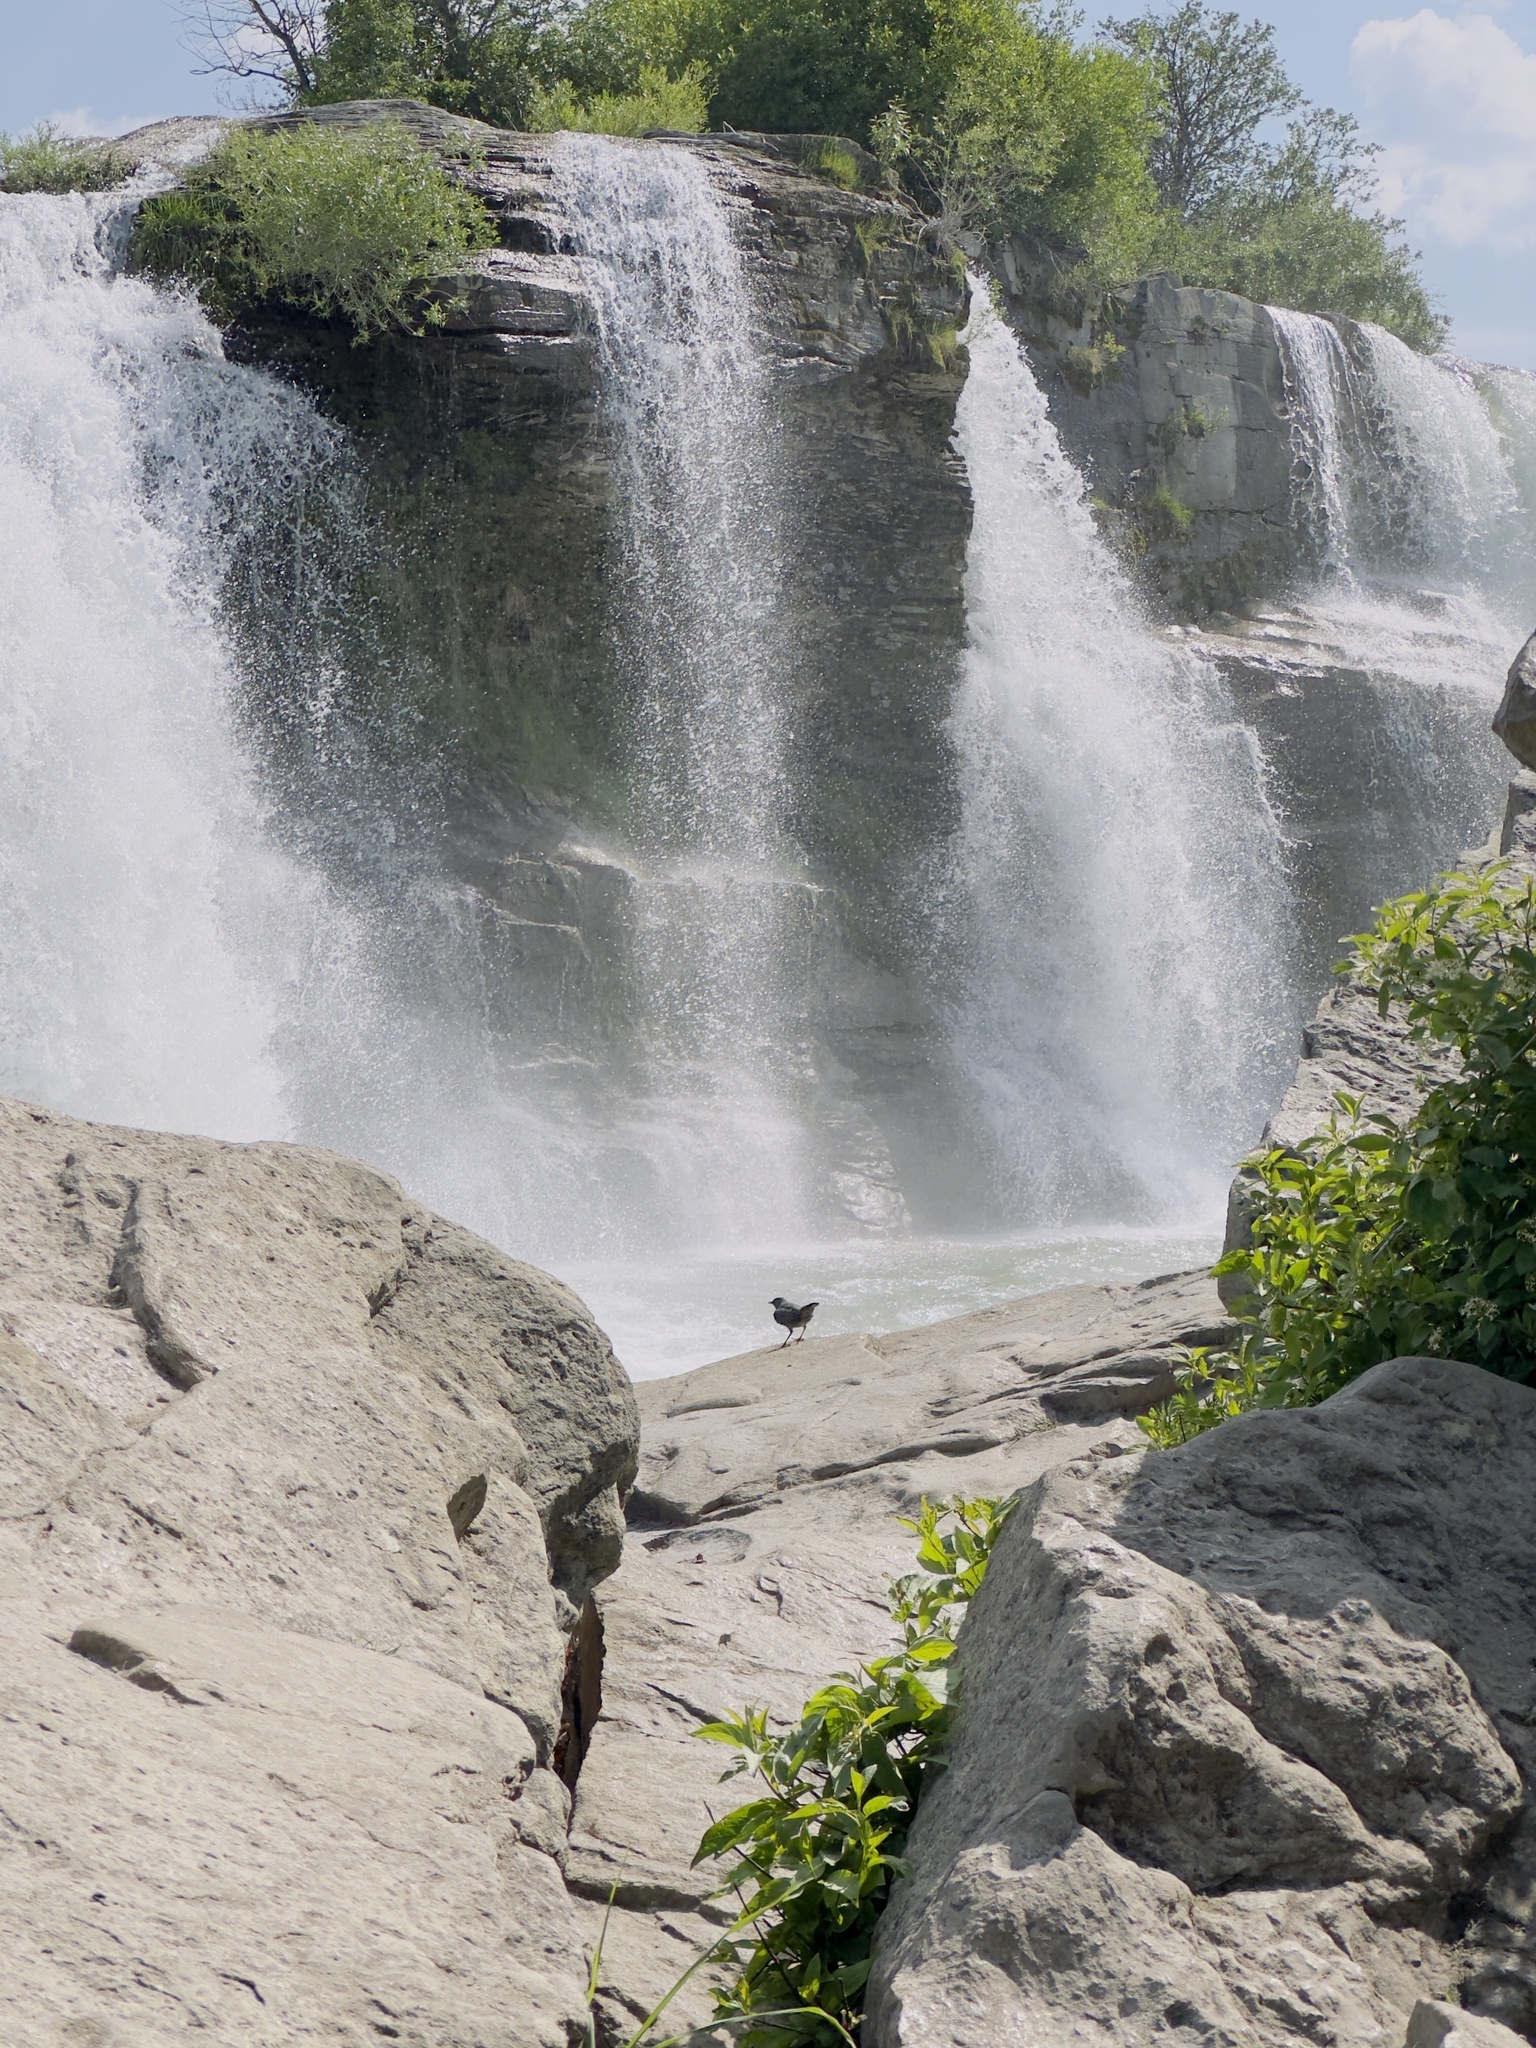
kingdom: Animalia
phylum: Chordata
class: Aves
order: Passeriformes
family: Cinclidae
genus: Cinclus
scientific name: Cinclus mexicanus
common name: American dipper
